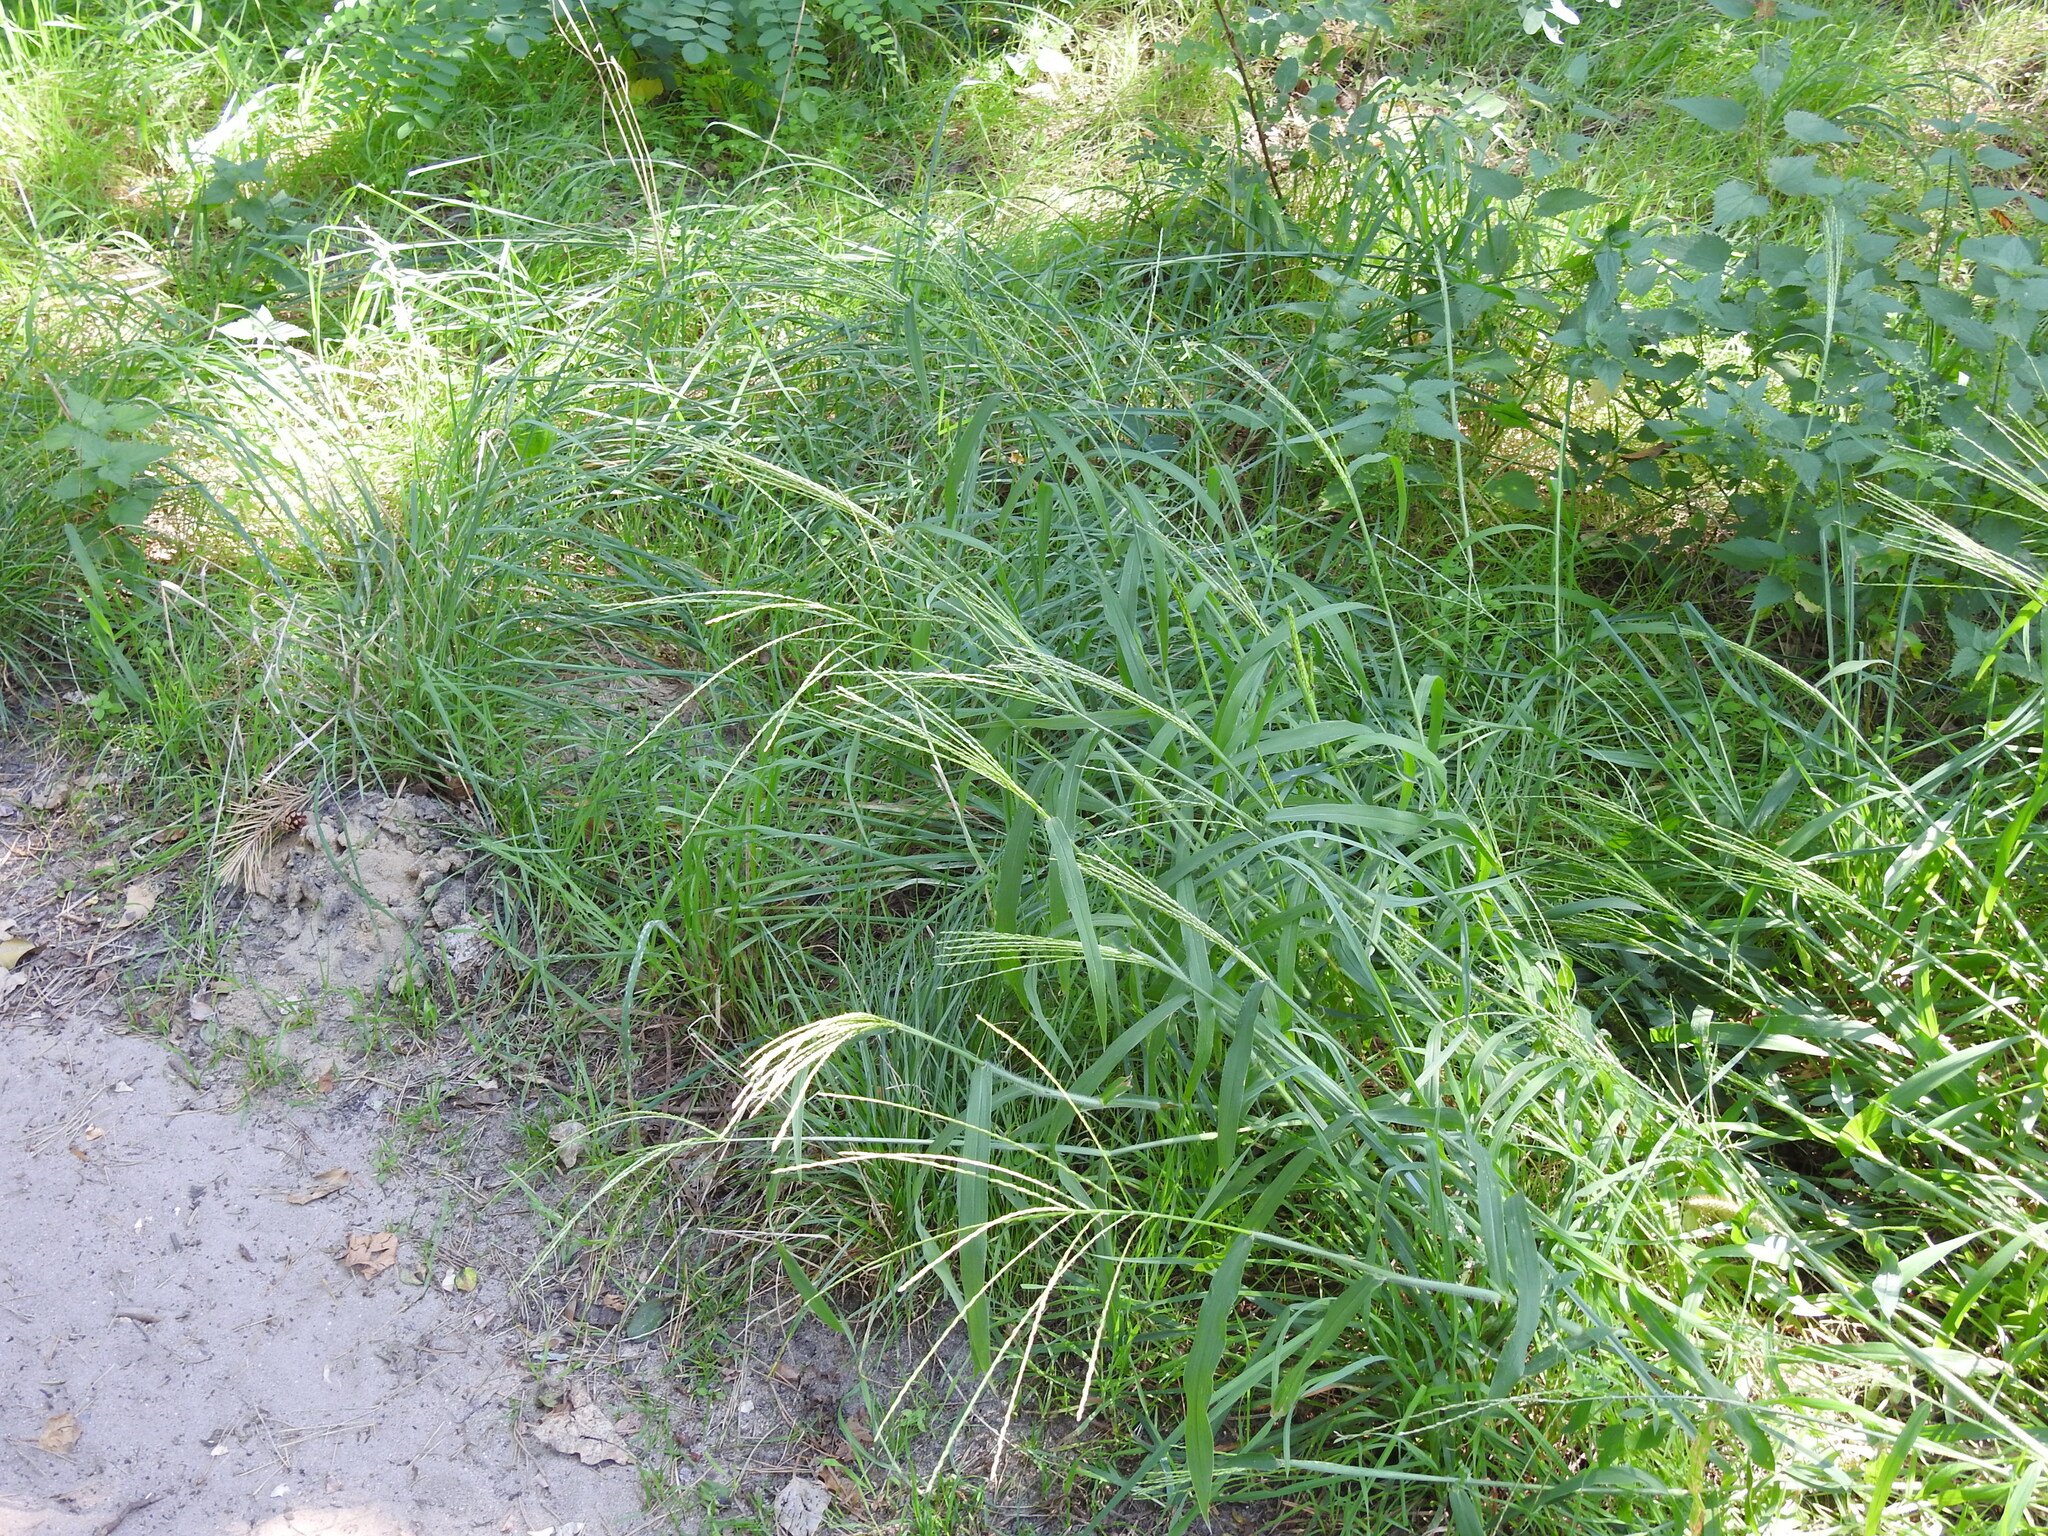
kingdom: Plantae
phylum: Tracheophyta
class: Liliopsida
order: Poales
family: Poaceae
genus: Digitaria
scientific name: Digitaria sanguinalis
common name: Hairy crabgrass
